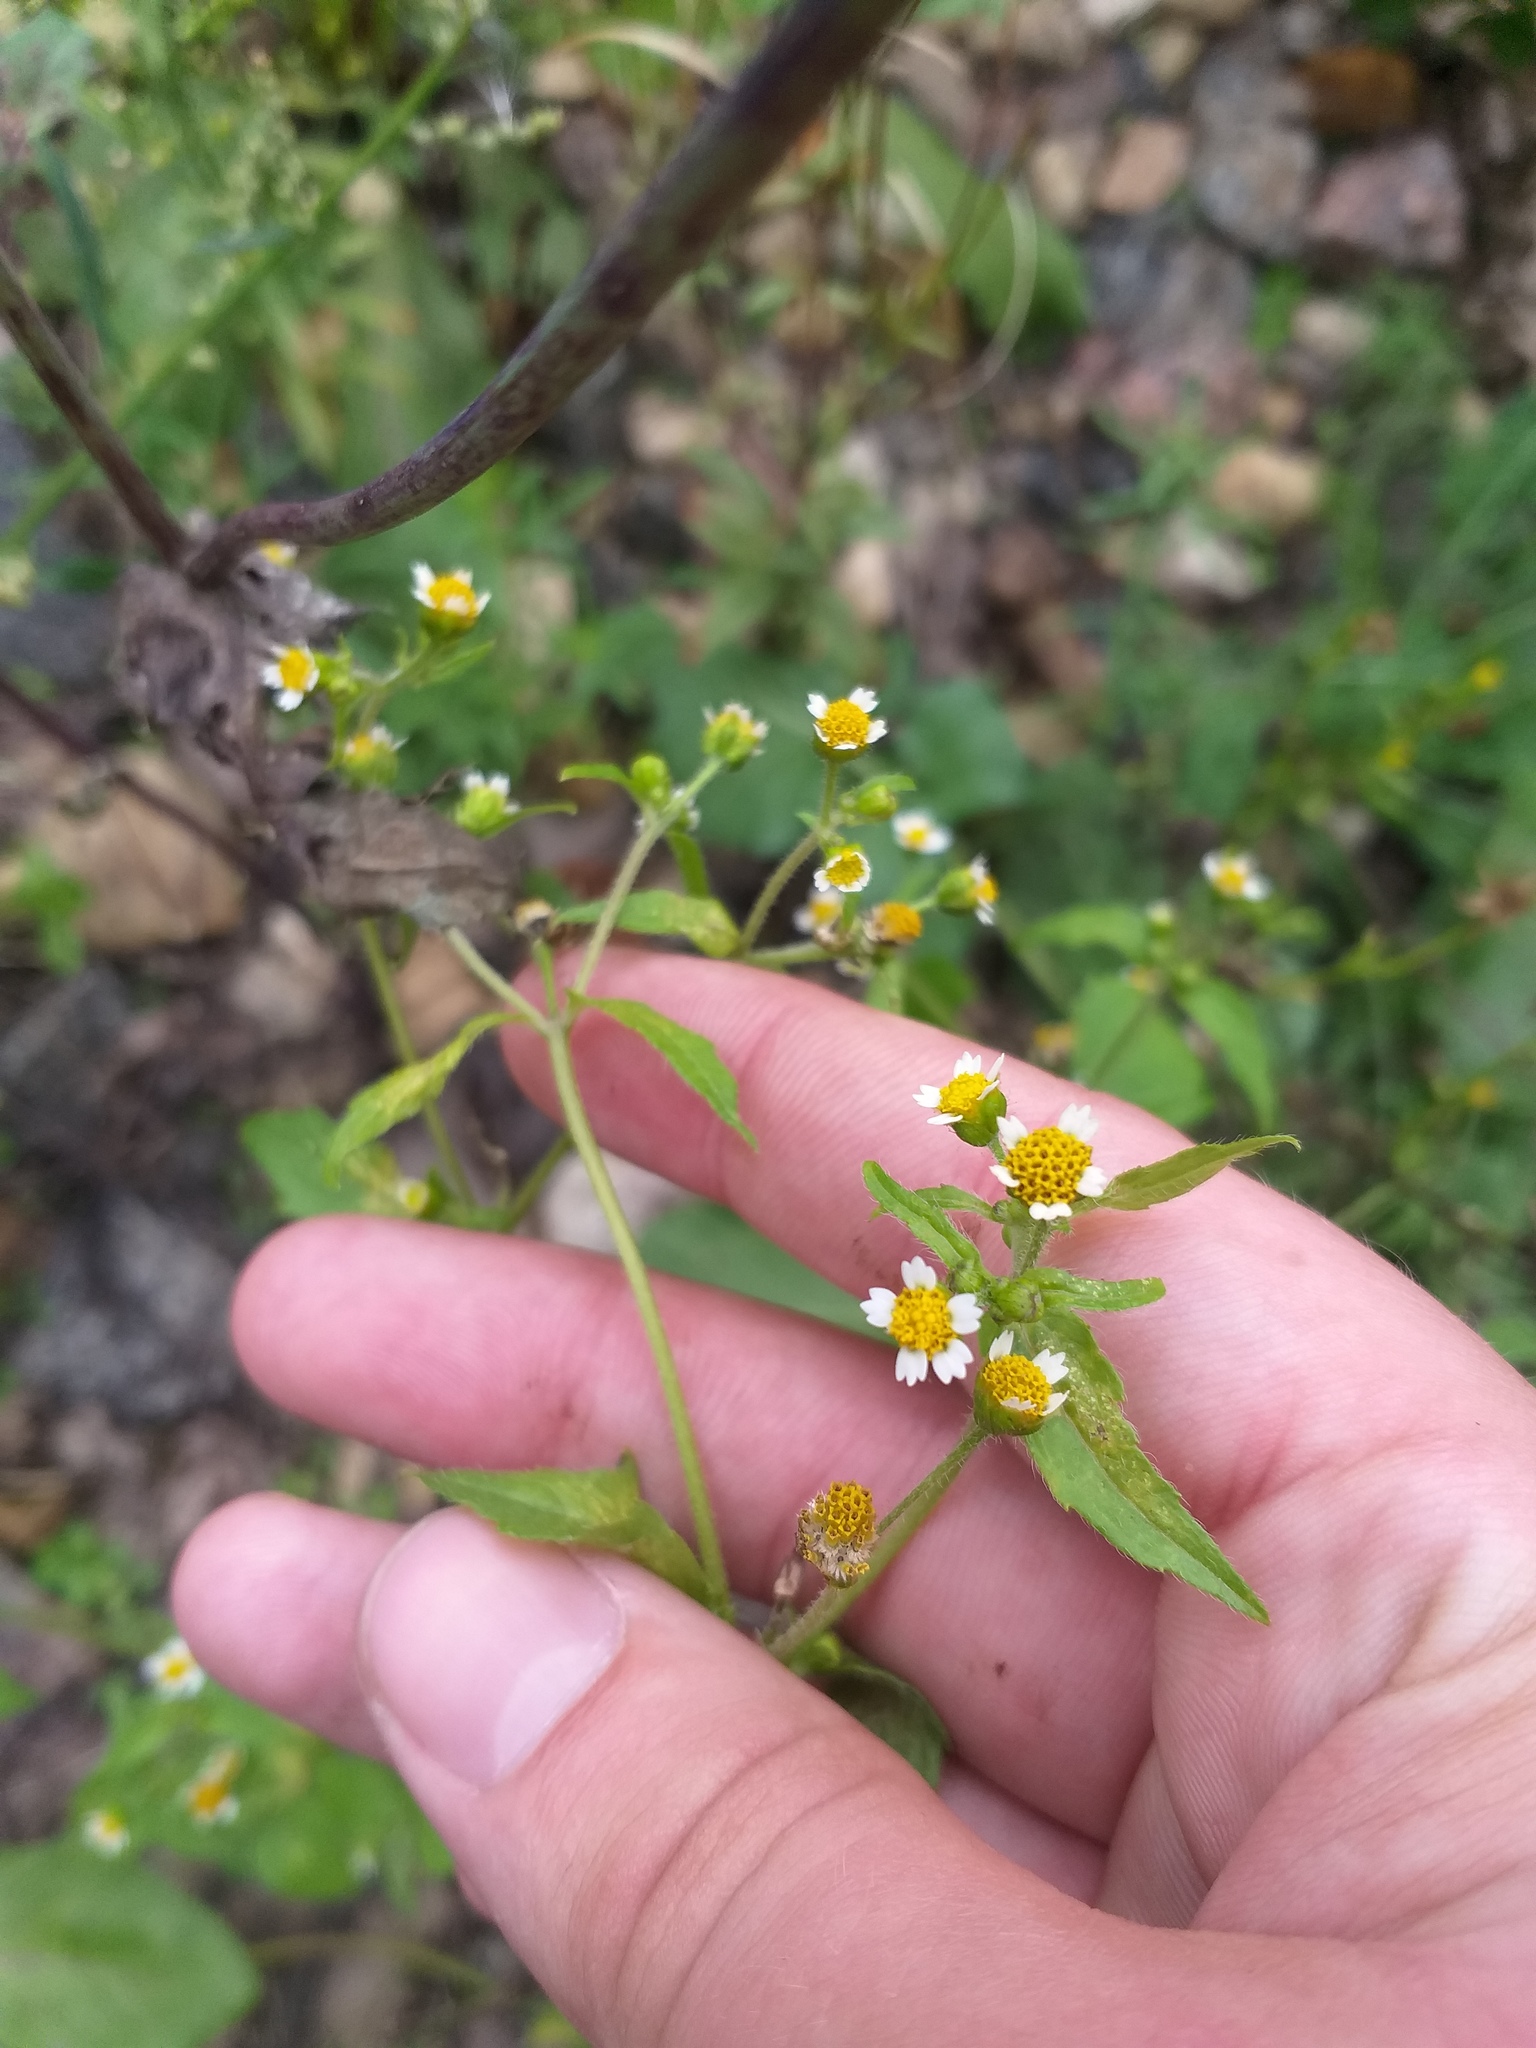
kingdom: Plantae
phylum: Tracheophyta
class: Magnoliopsida
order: Asterales
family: Asteraceae
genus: Galinsoga
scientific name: Galinsoga quadriradiata
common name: Shaggy soldier
